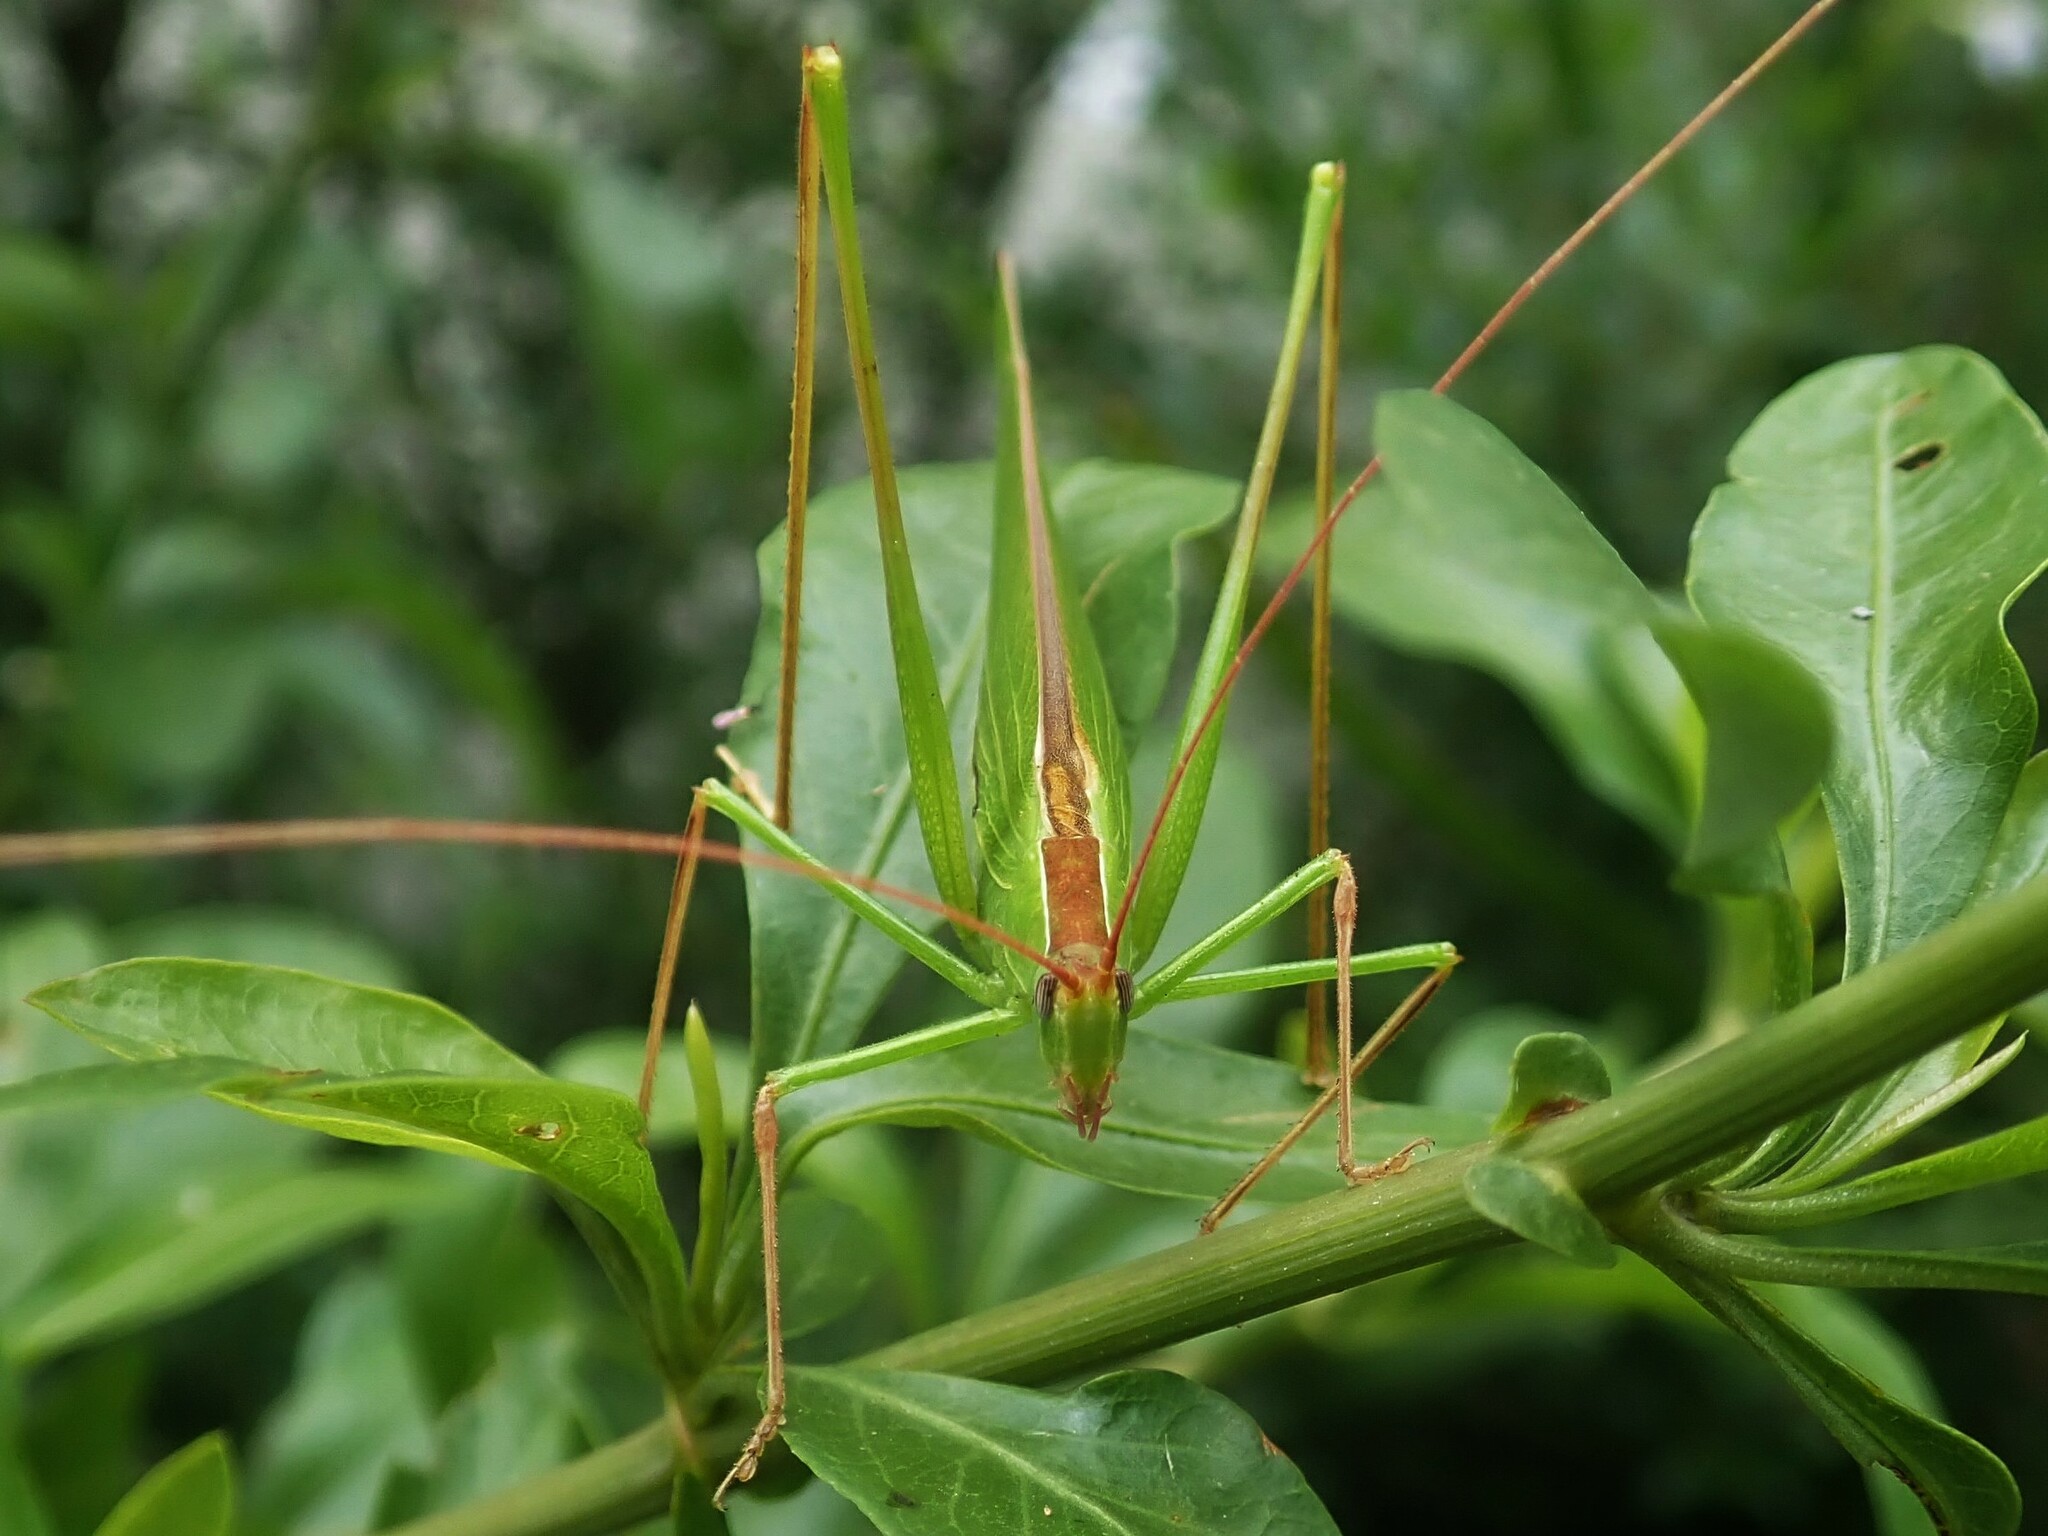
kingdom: Animalia
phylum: Arthropoda
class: Insecta
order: Orthoptera
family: Tettigoniidae
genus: Tylopsis
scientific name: Tylopsis continua
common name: Common grass katydid
